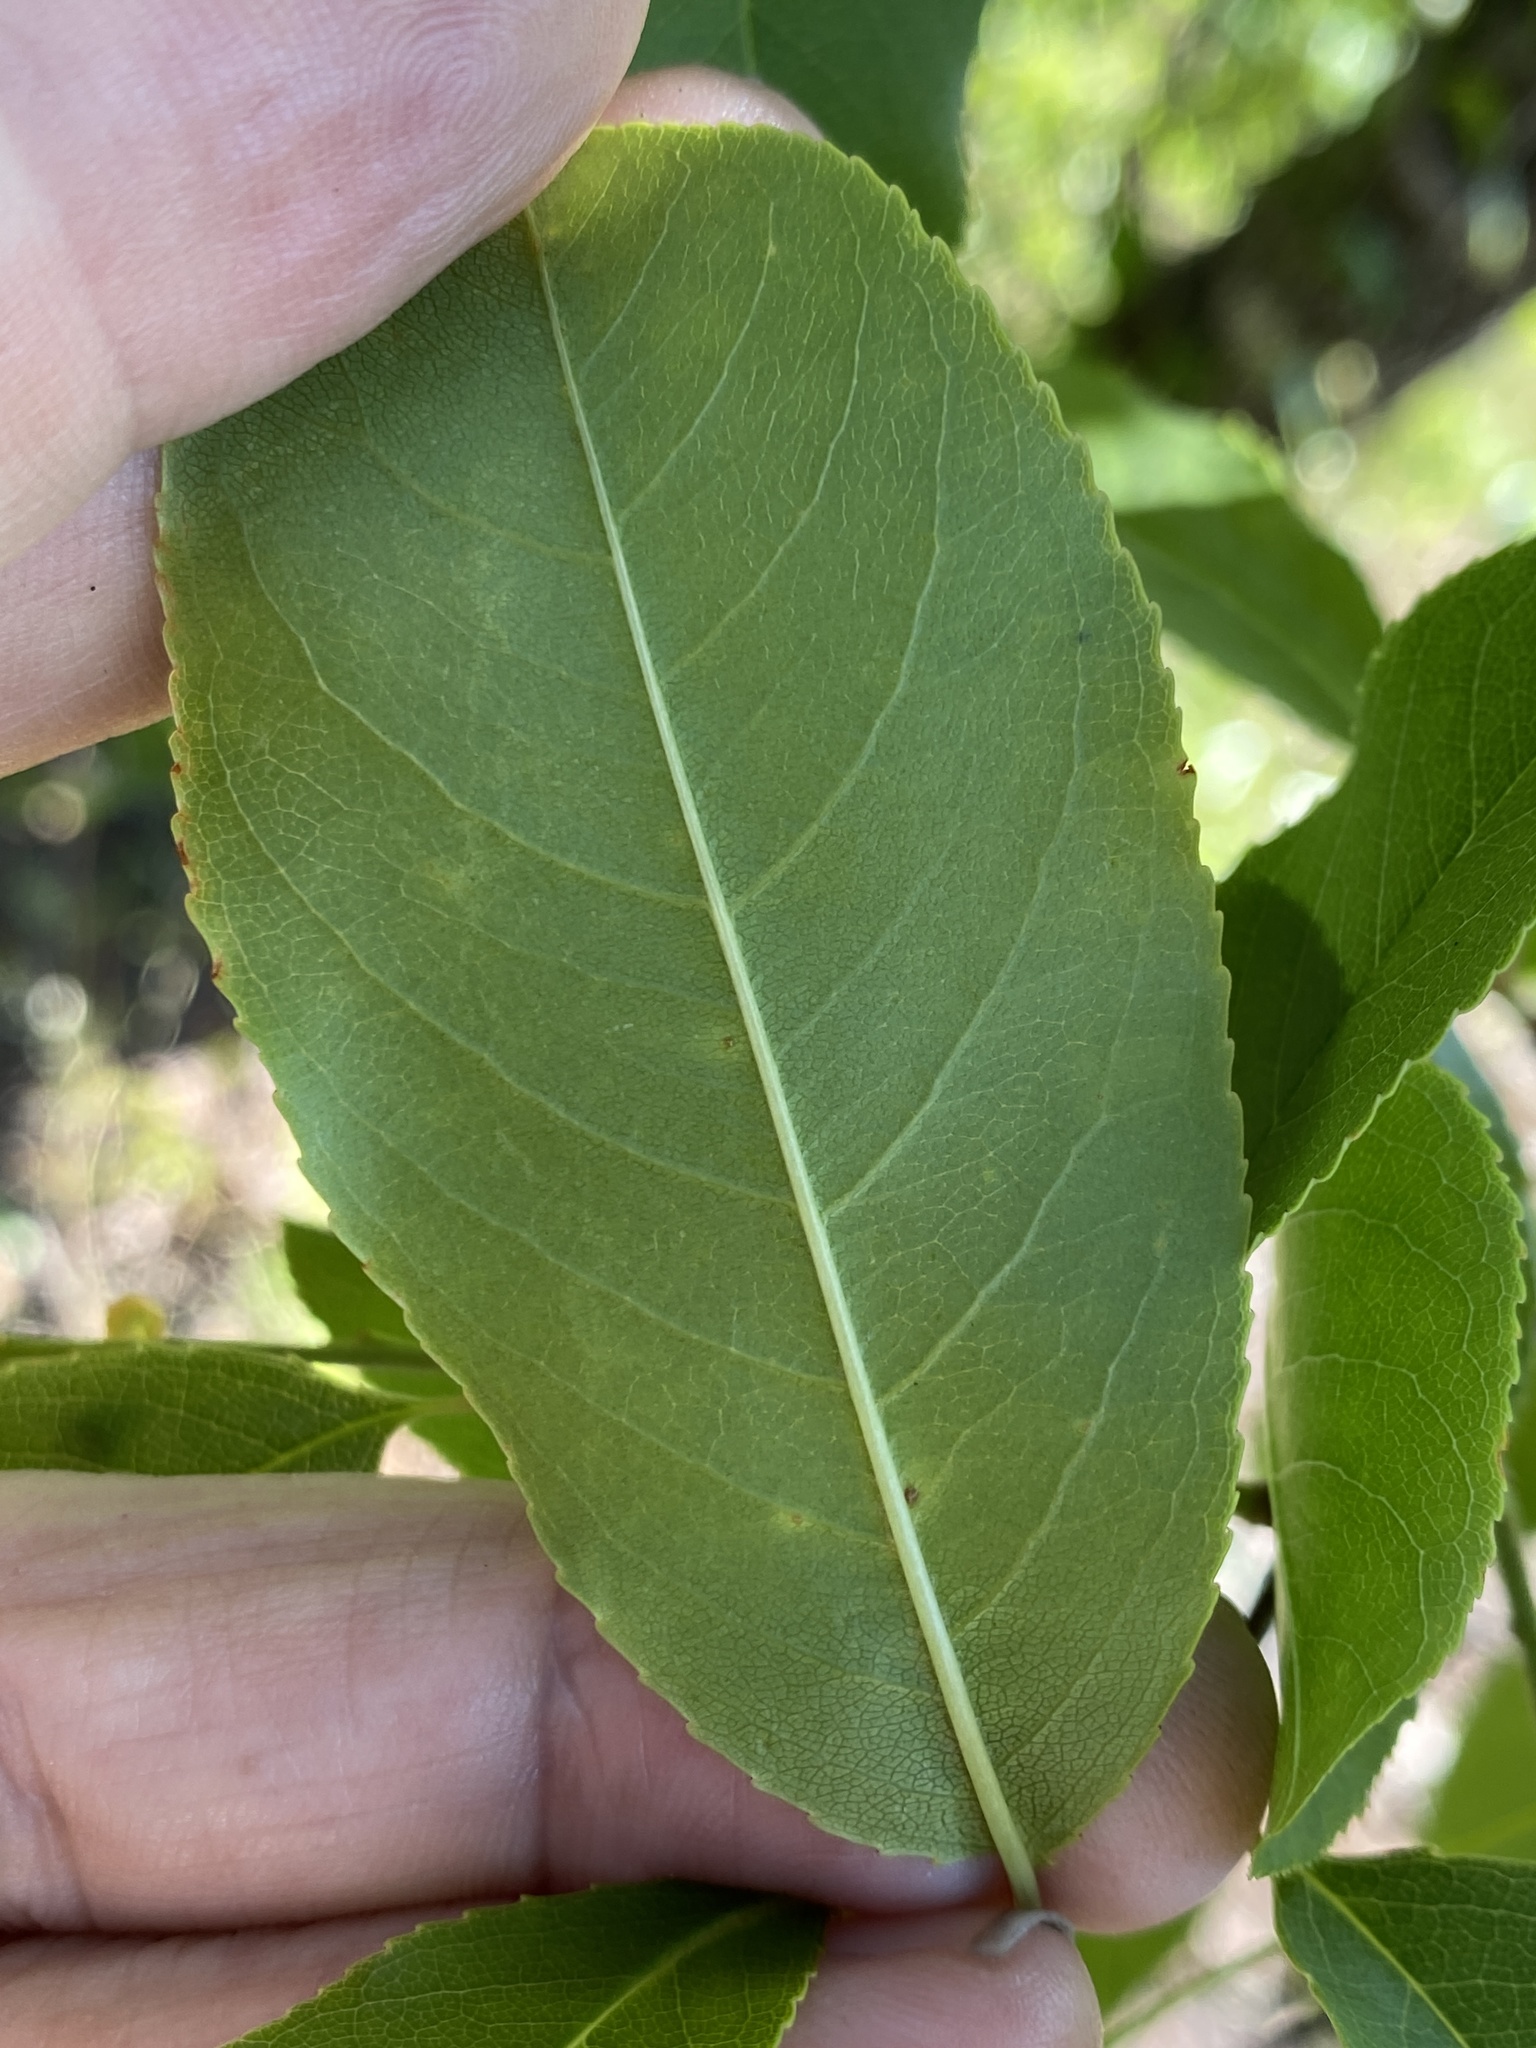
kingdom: Plantae
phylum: Tracheophyta
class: Magnoliopsida
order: Rosales
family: Rosaceae
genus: Prunus
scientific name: Prunus alabamensis
